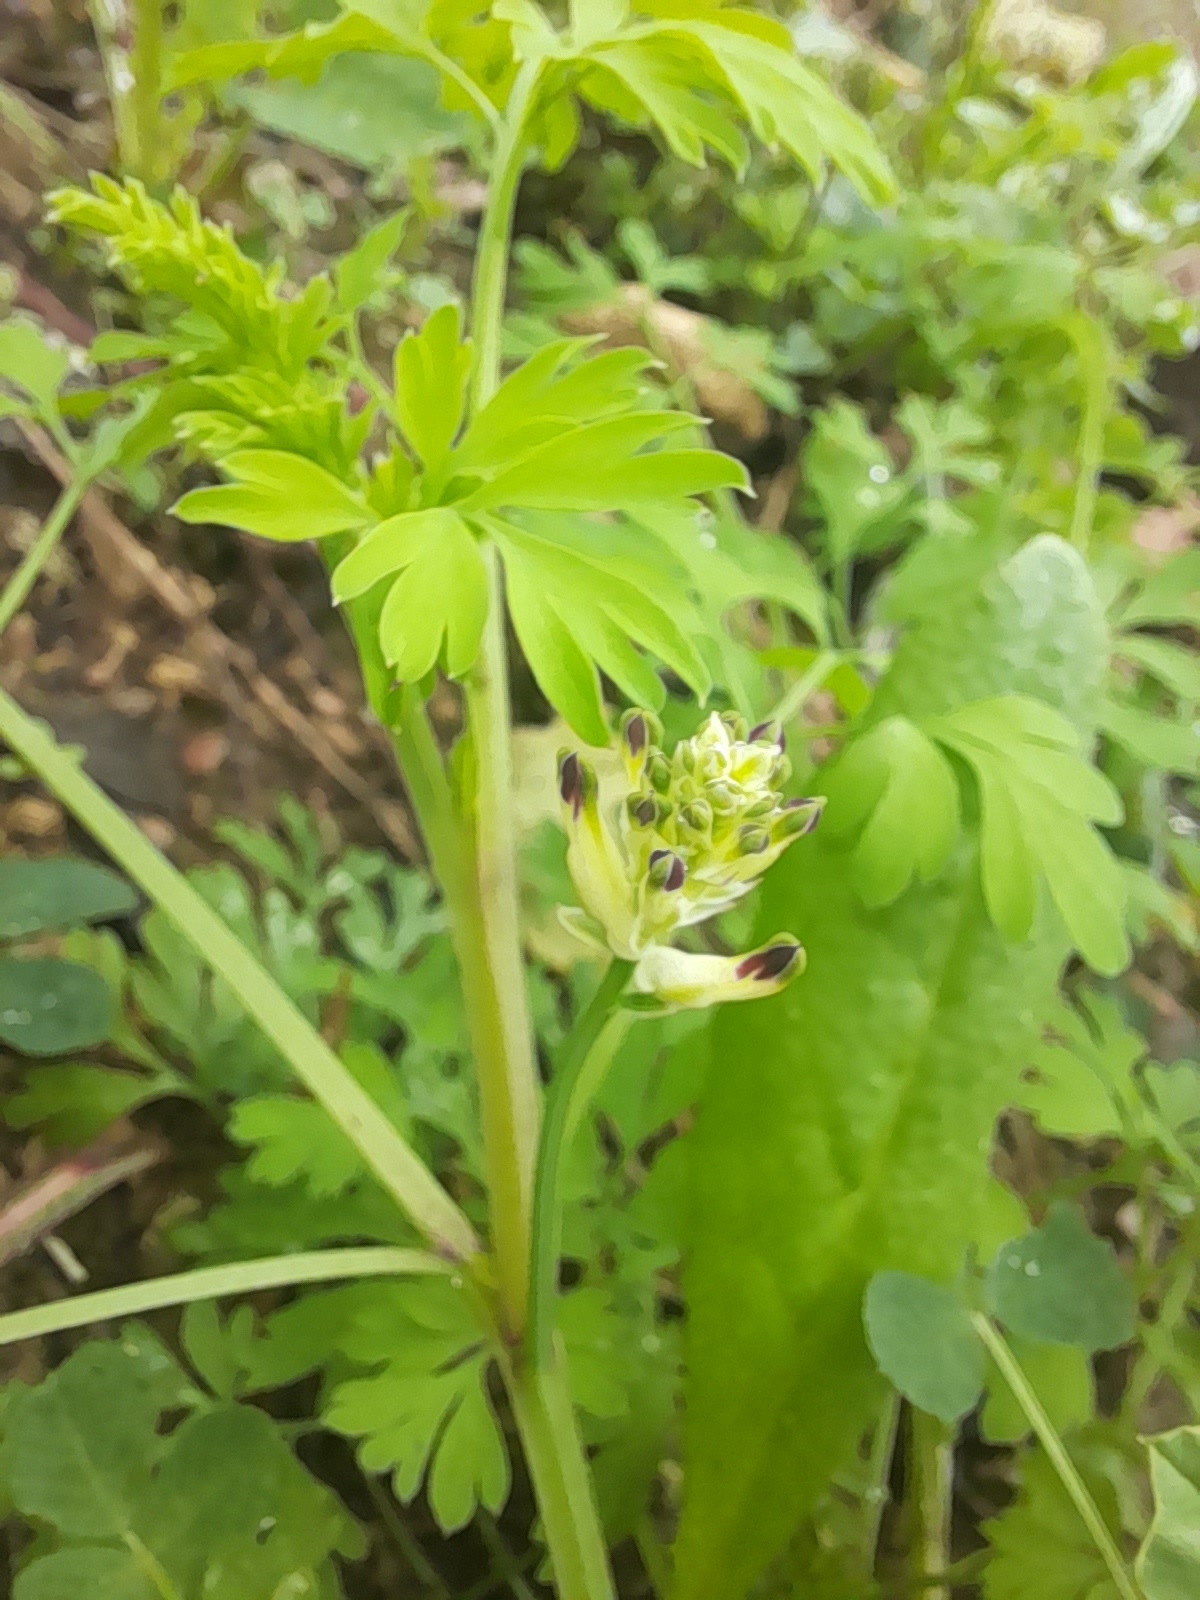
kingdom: Plantae
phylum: Tracheophyta
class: Magnoliopsida
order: Ranunculales
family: Papaveraceae
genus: Fumaria
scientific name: Fumaria capreolata
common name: White ramping-fumitory
